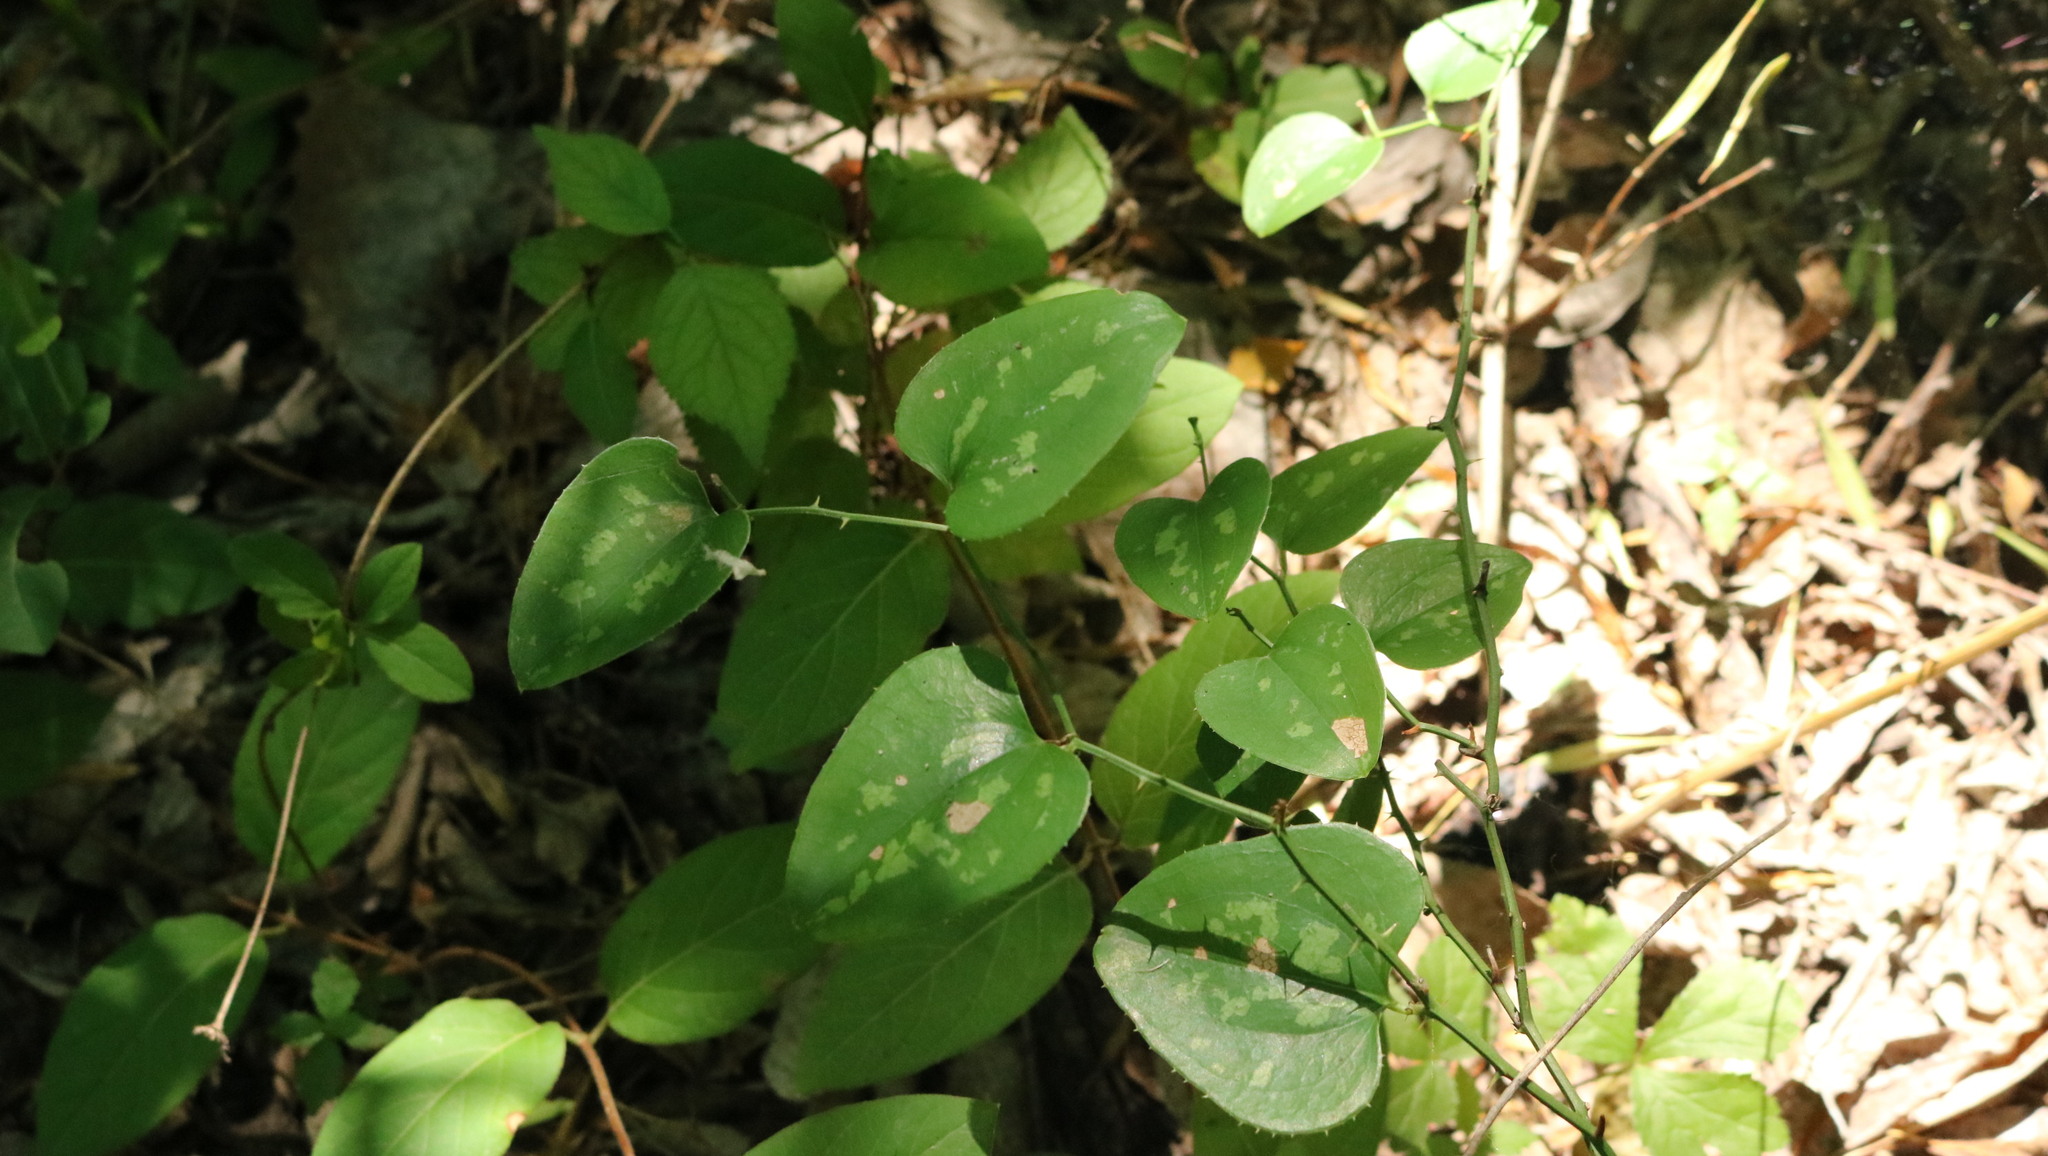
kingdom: Plantae
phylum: Tracheophyta
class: Liliopsida
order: Liliales
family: Smilacaceae
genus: Smilax
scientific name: Smilax rotundifolia
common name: Bullbriar
